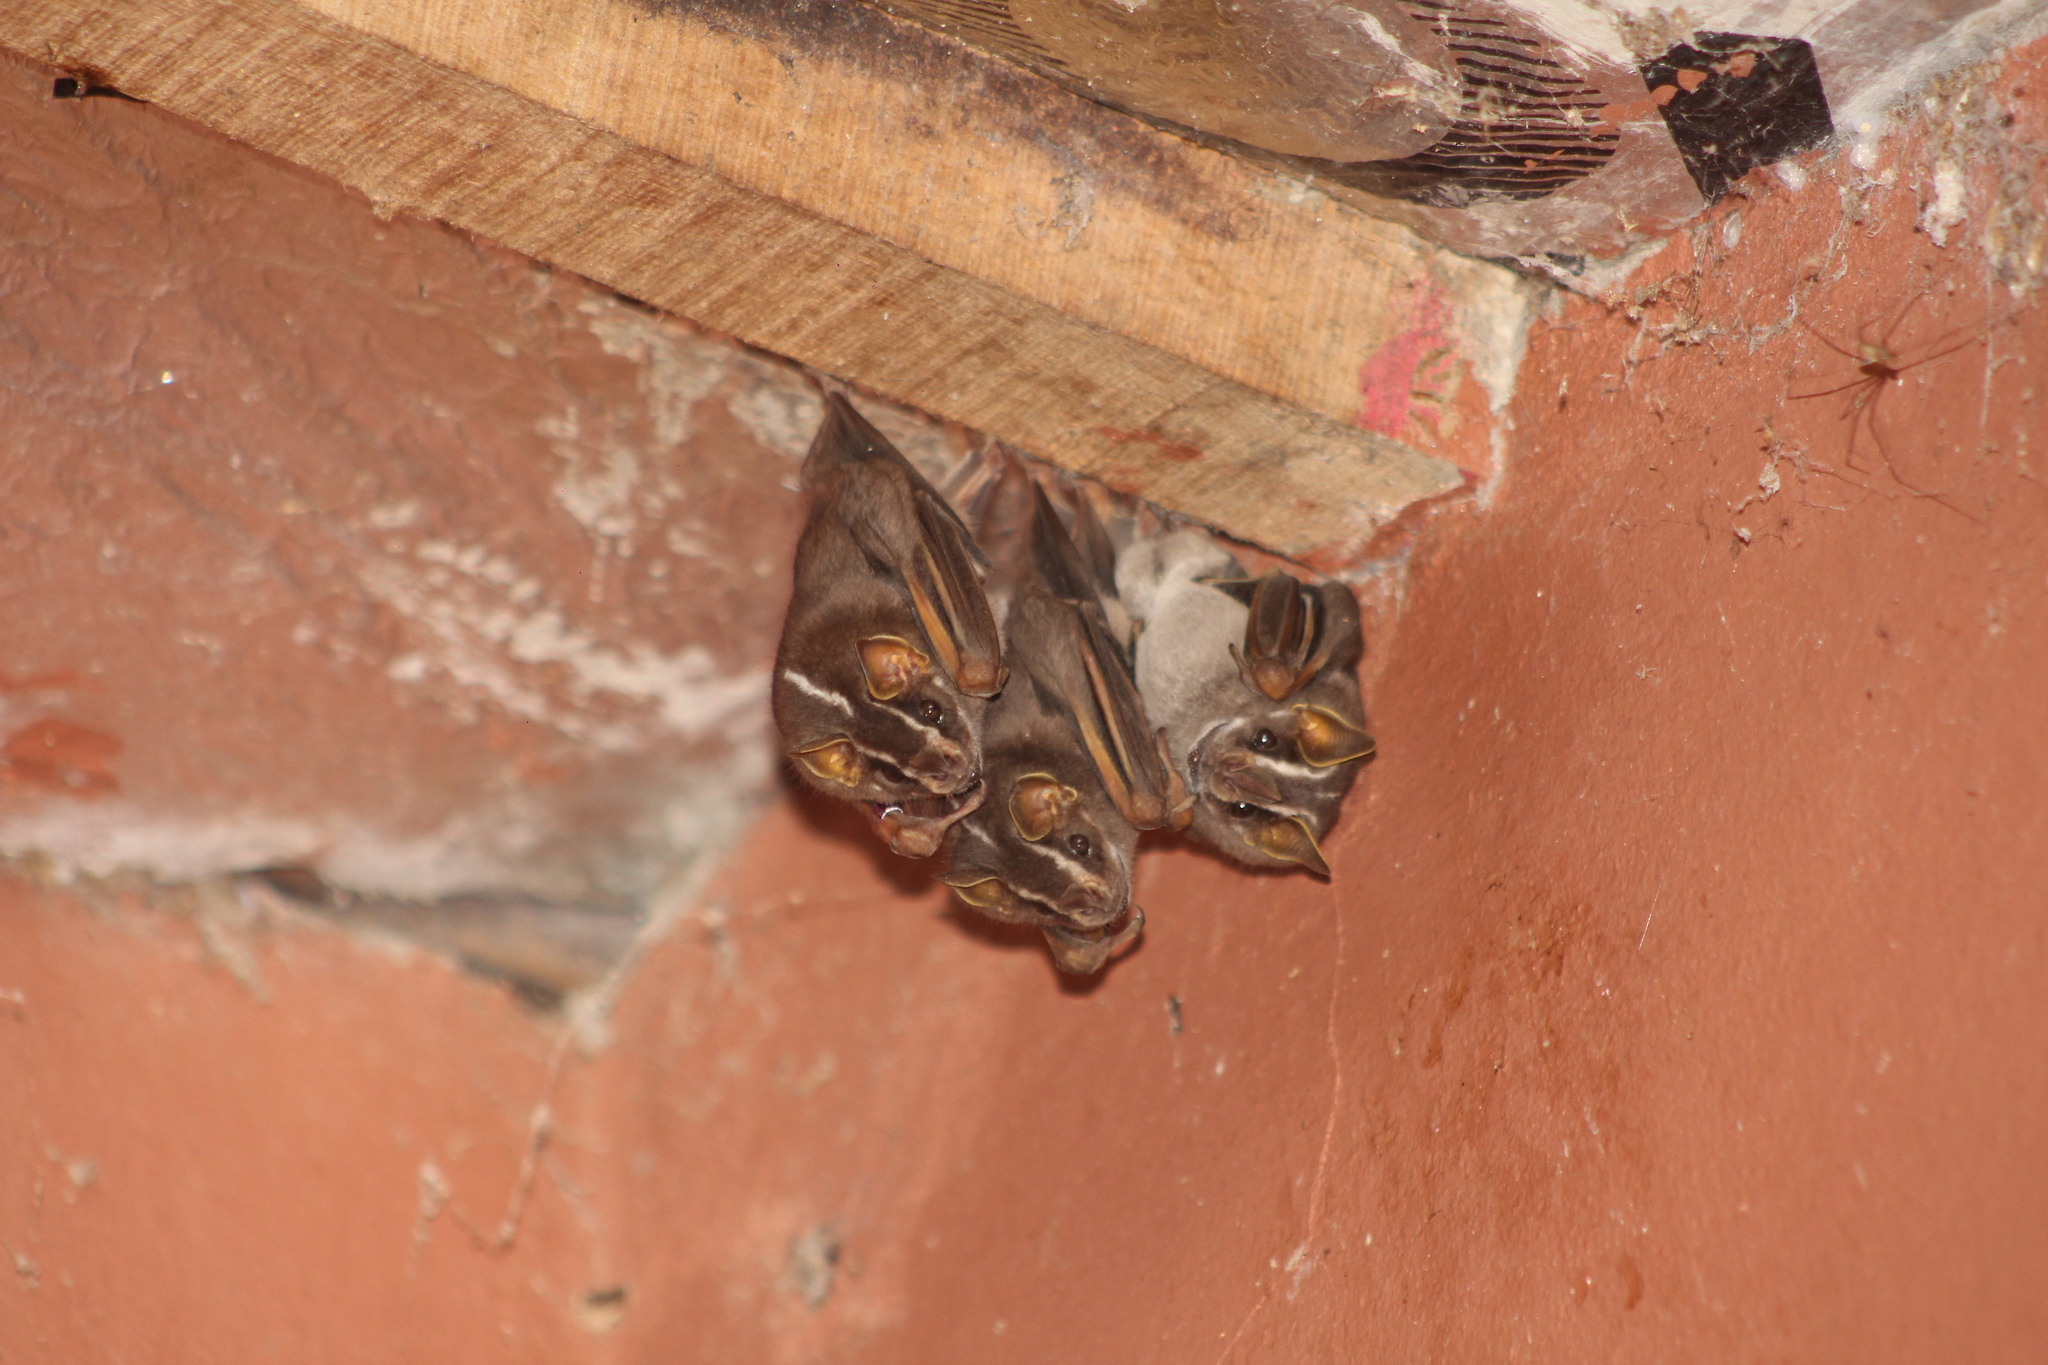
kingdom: Animalia
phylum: Chordata
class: Mammalia
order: Chiroptera
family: Phyllostomidae
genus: Platyrrhinus
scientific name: Platyrrhinus lineatus
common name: White-lined broad-nosed bat
